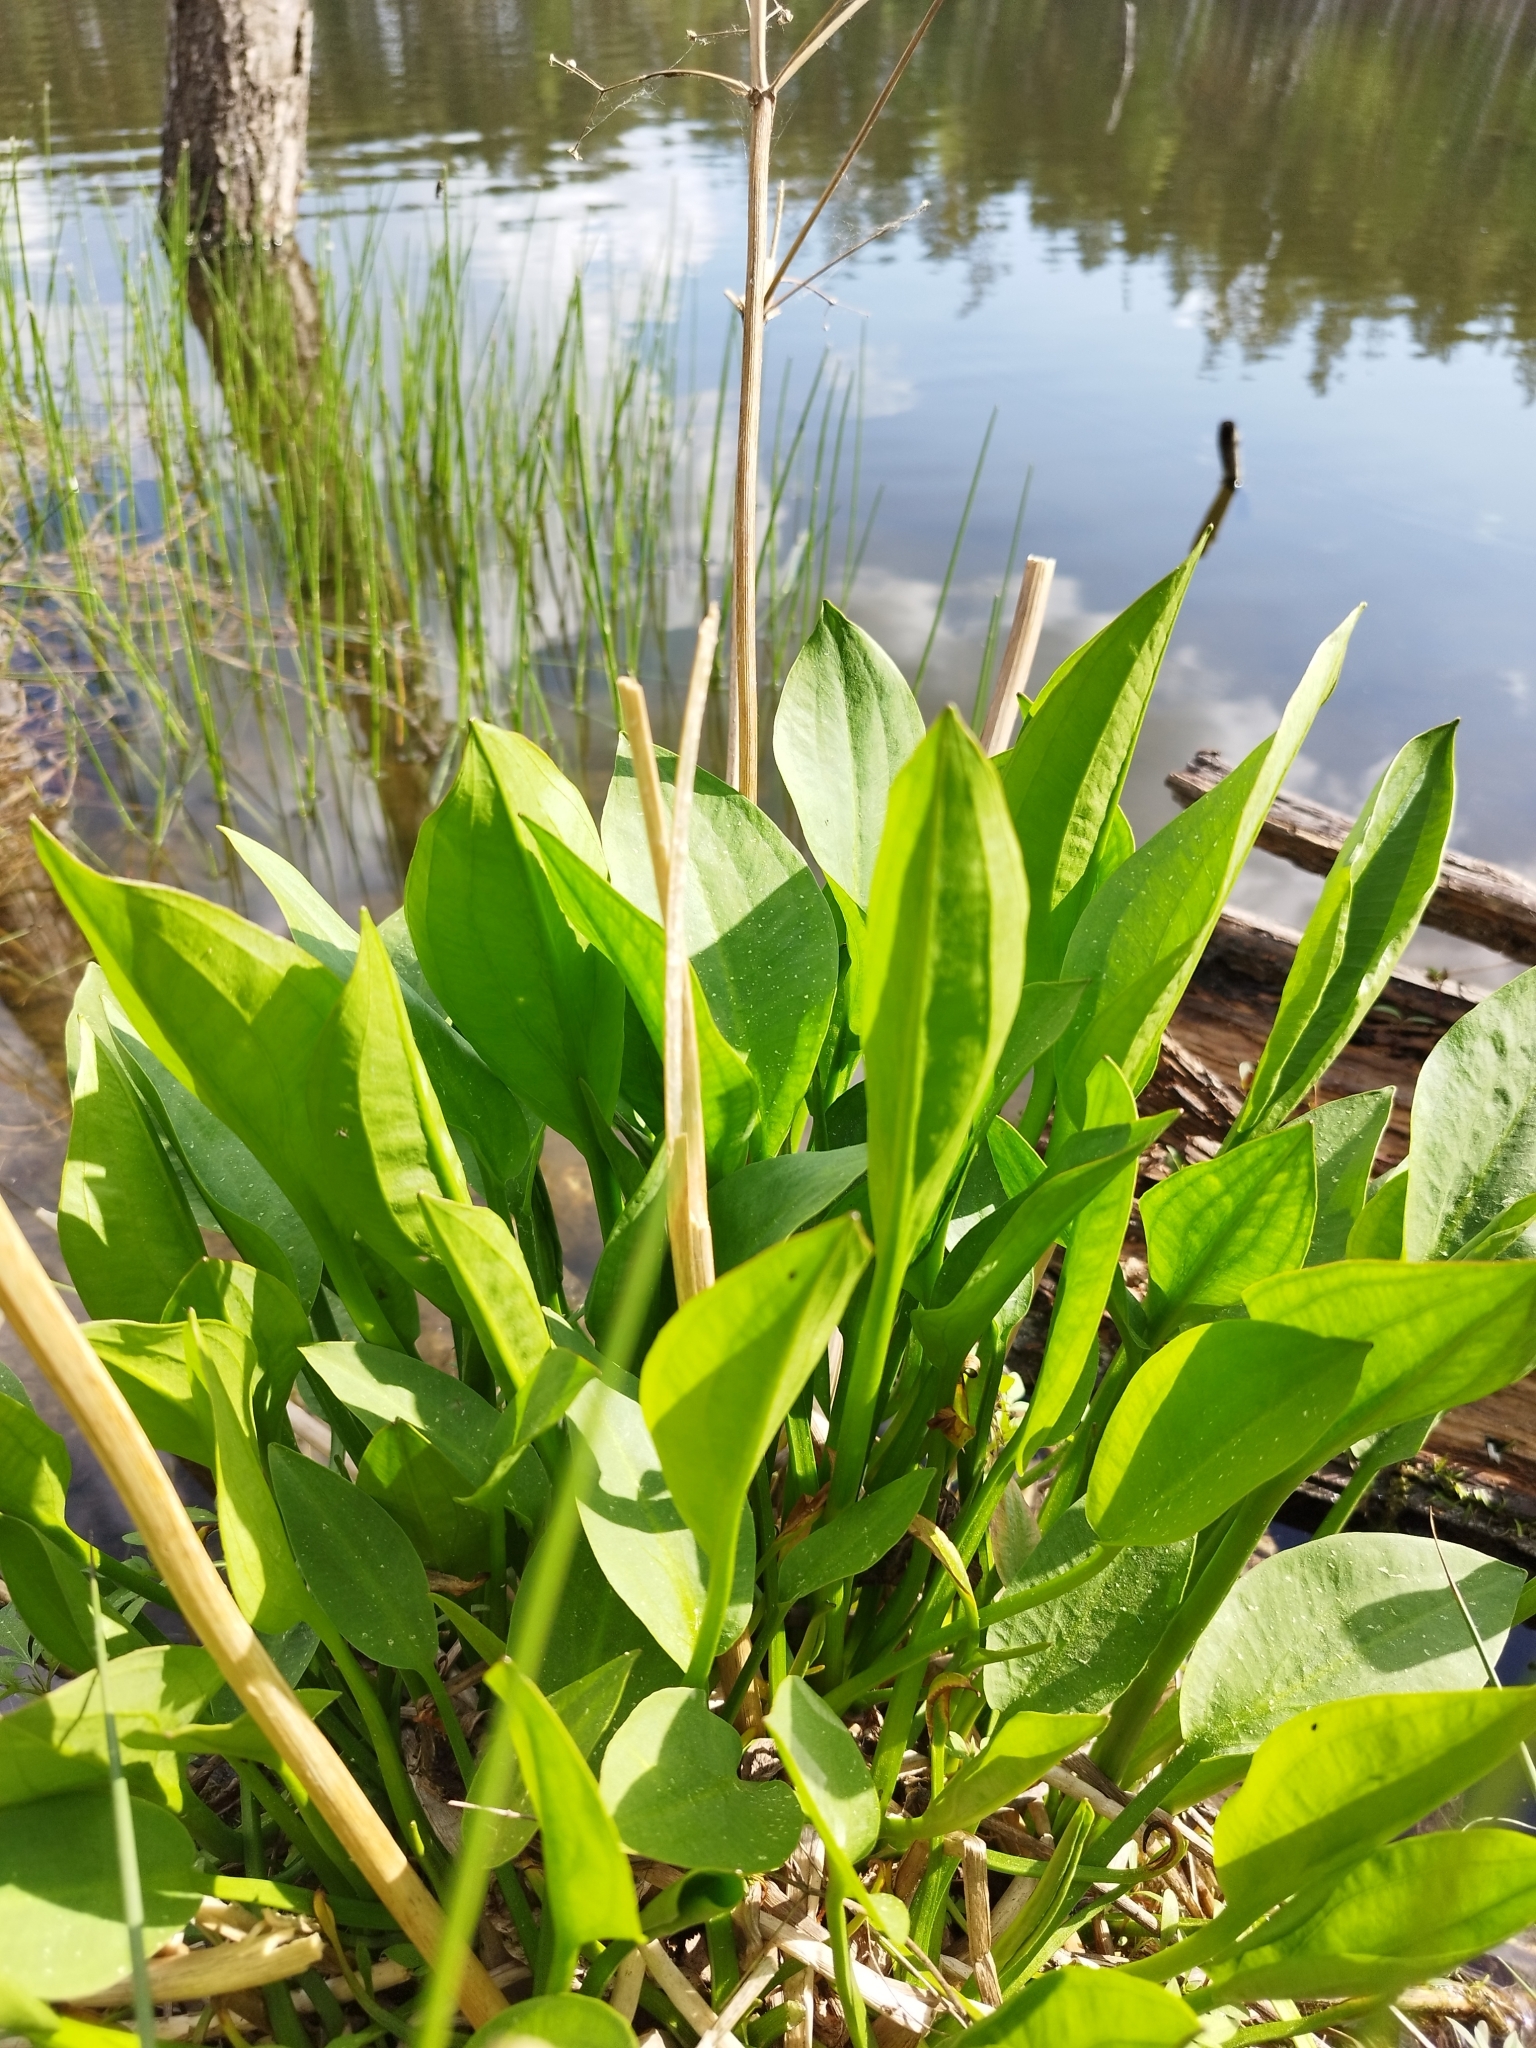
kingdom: Plantae
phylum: Tracheophyta
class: Liliopsida
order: Alismatales
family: Alismataceae
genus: Alisma
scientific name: Alisma plantago-aquatica
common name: Water-plantain
